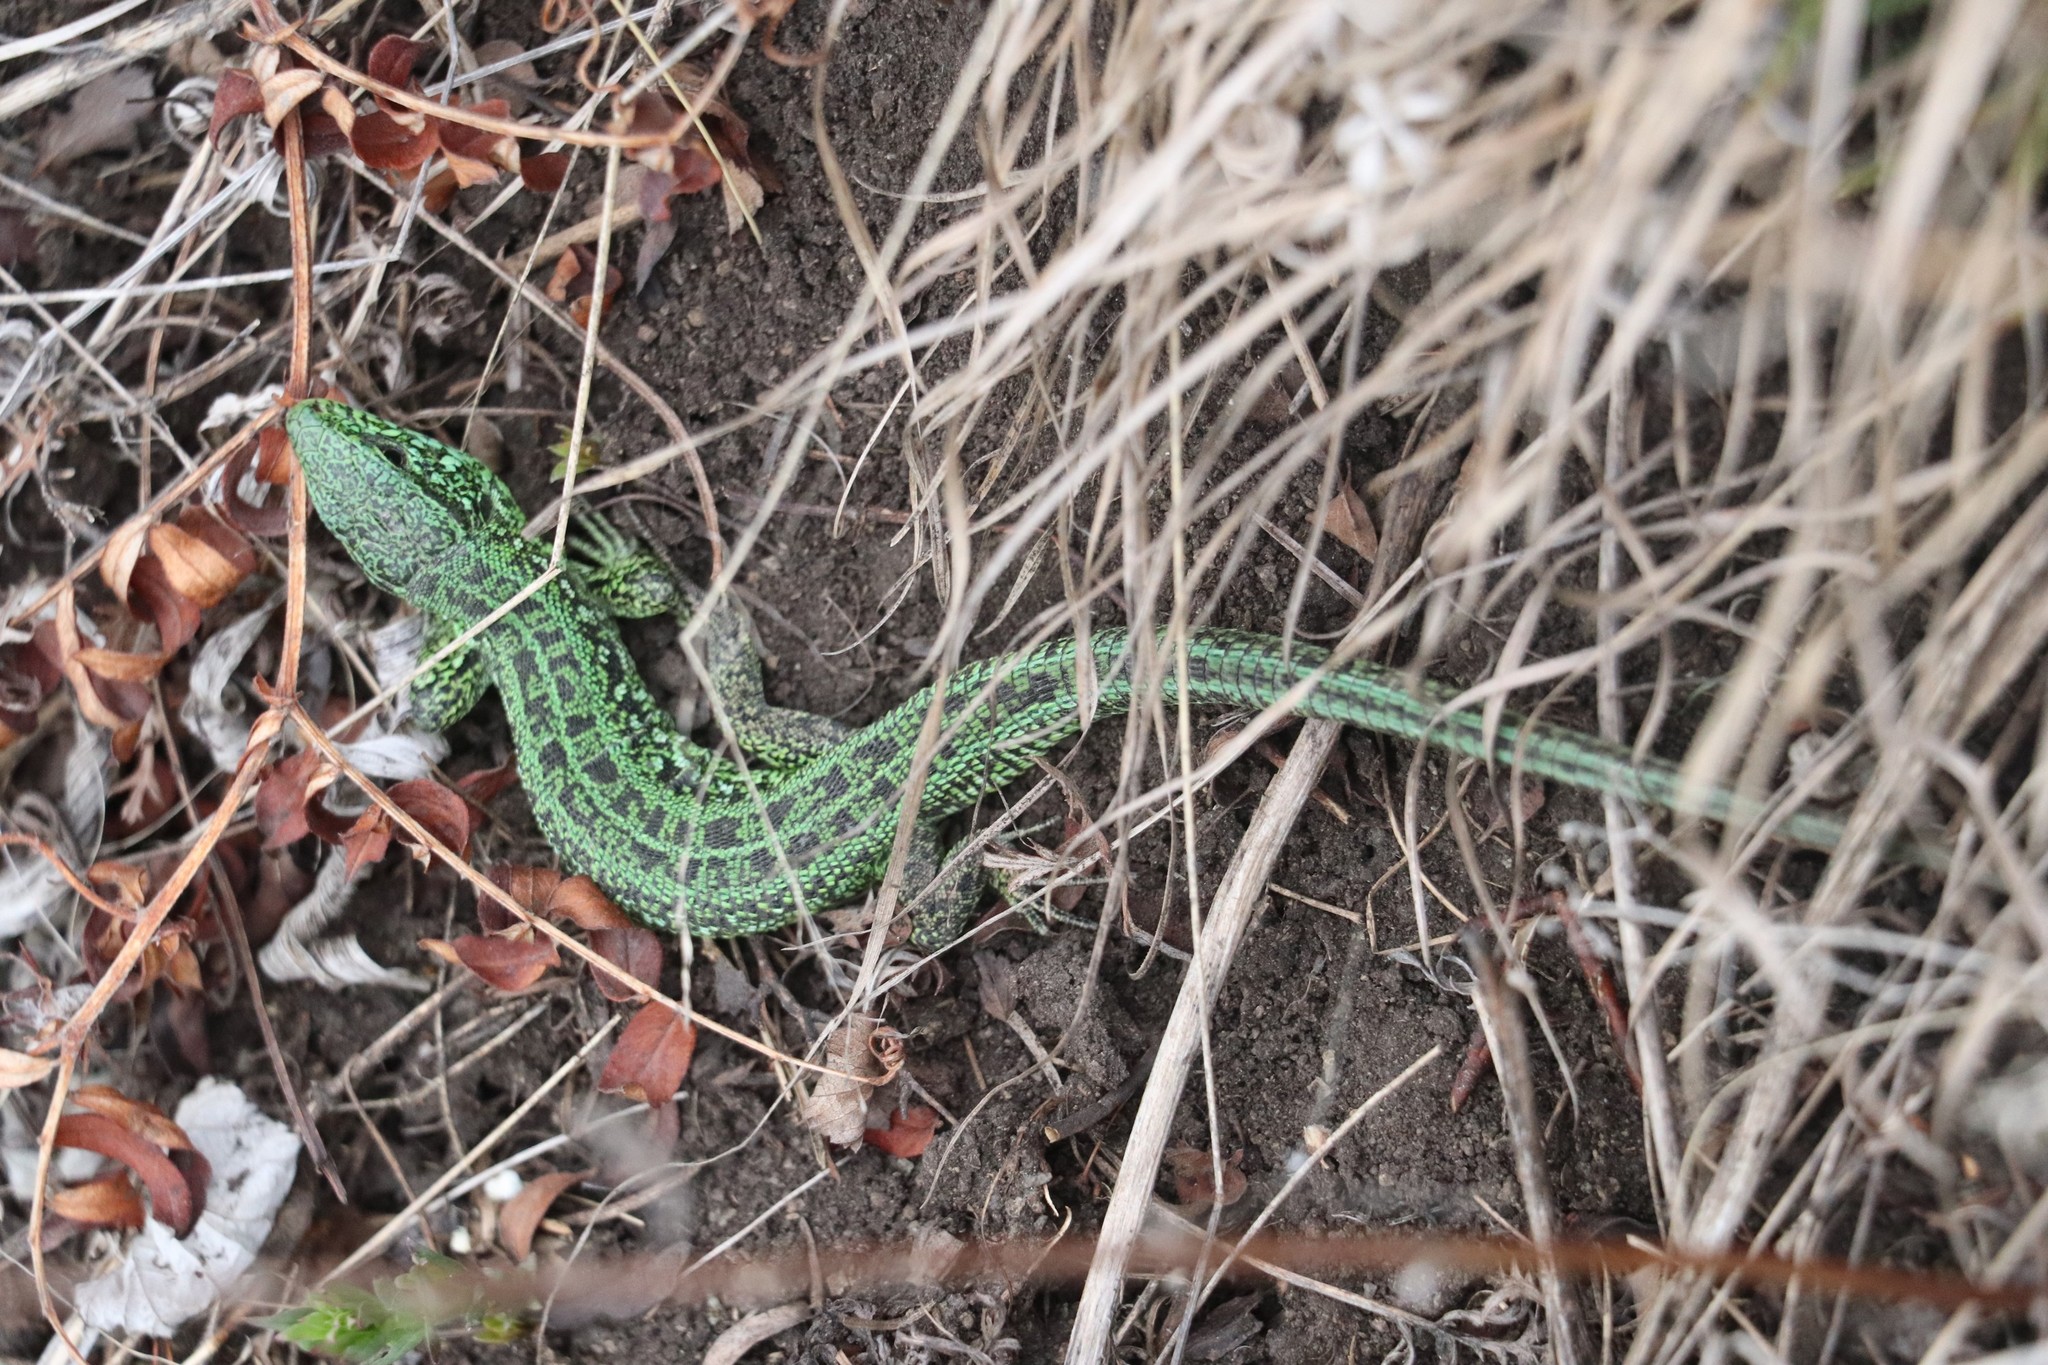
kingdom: Animalia
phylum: Chordata
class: Squamata
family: Lacertidae
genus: Lacerta
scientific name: Lacerta agilis
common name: Sand lizard
